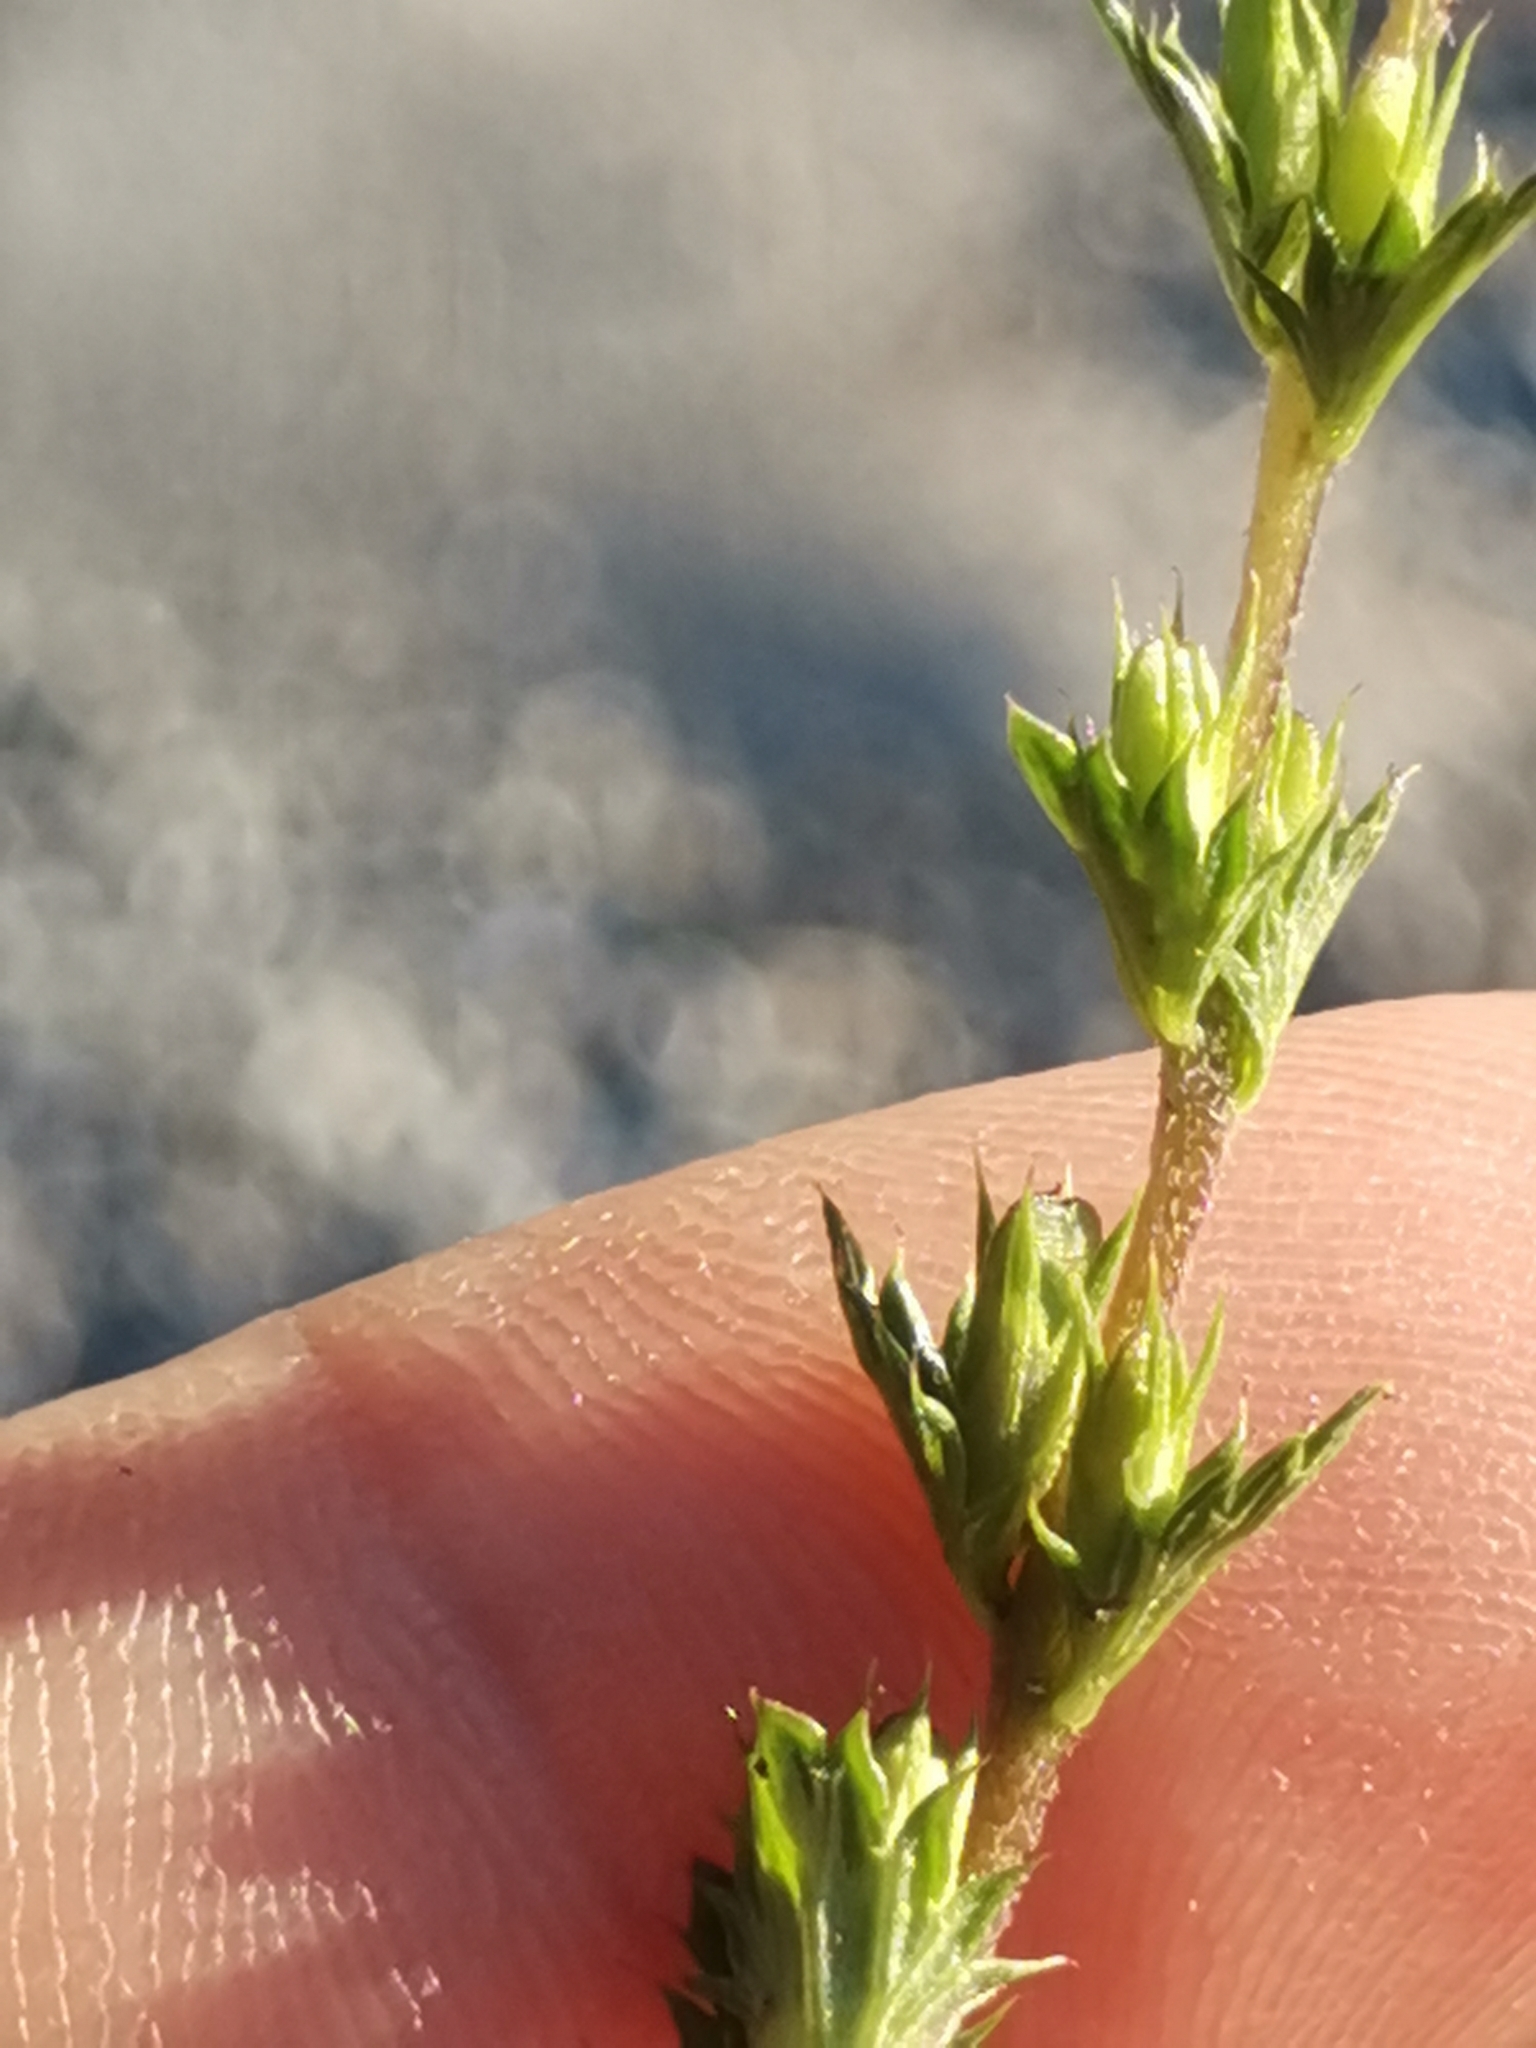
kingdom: Plantae
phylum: Tracheophyta
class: Magnoliopsida
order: Lamiales
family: Orobanchaceae
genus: Euphrasia
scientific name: Euphrasia stricta
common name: Drug eyebright
